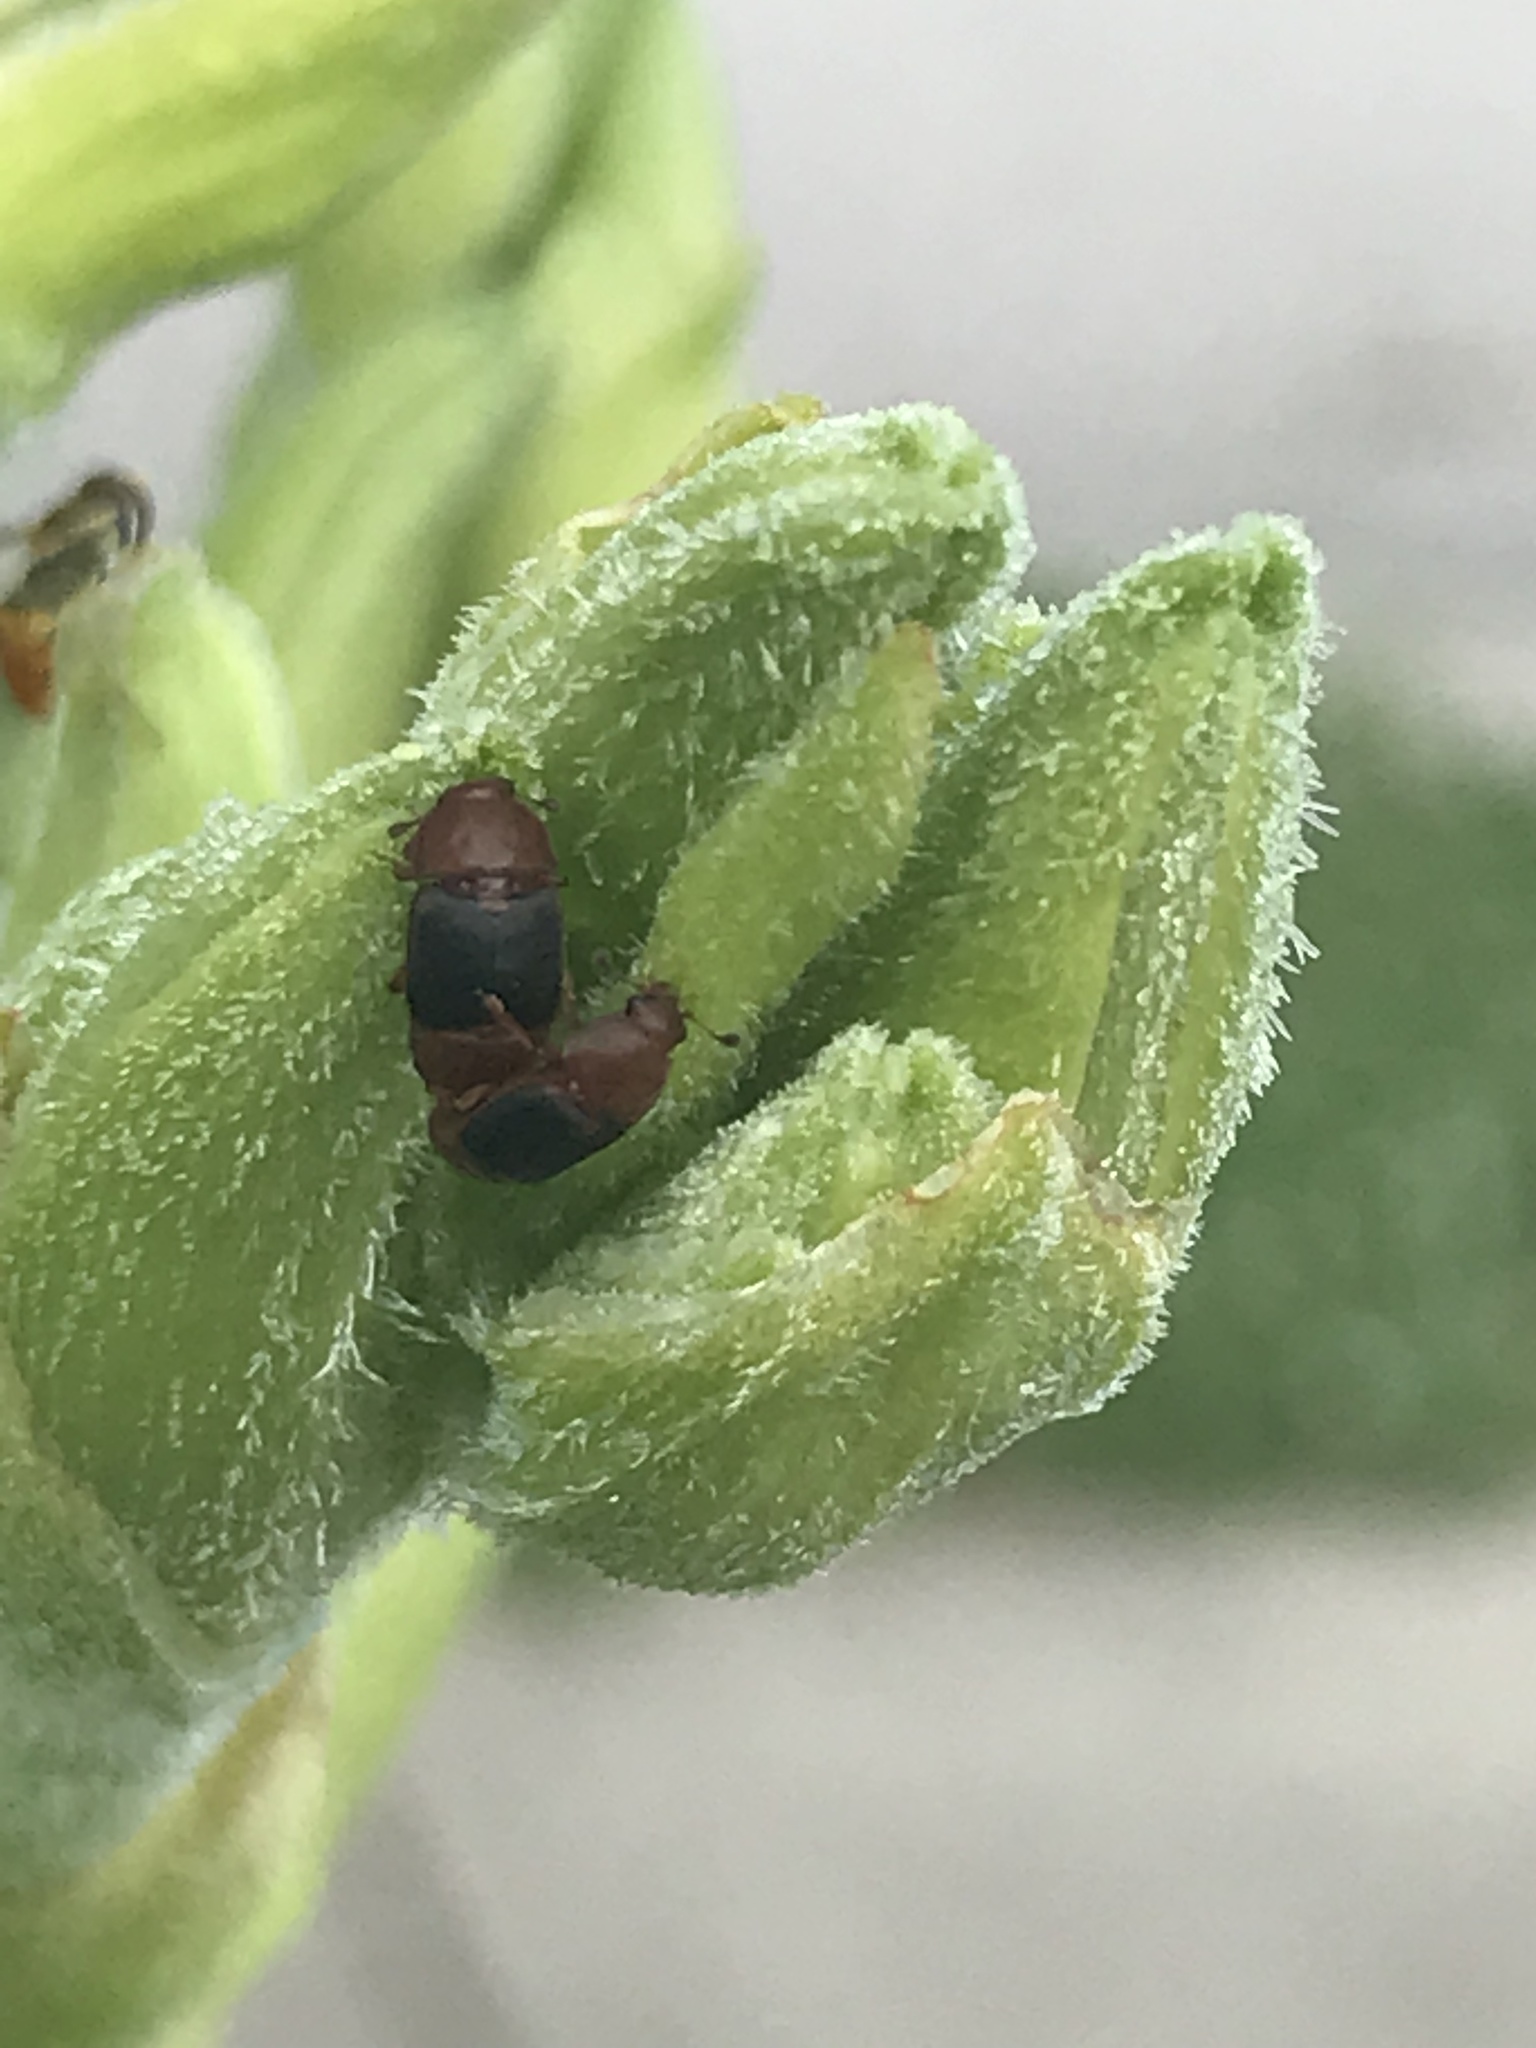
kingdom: Animalia
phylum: Arthropoda
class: Insecta
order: Coleoptera
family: Nitidulidae
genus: Carpophilus
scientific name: Carpophilus
